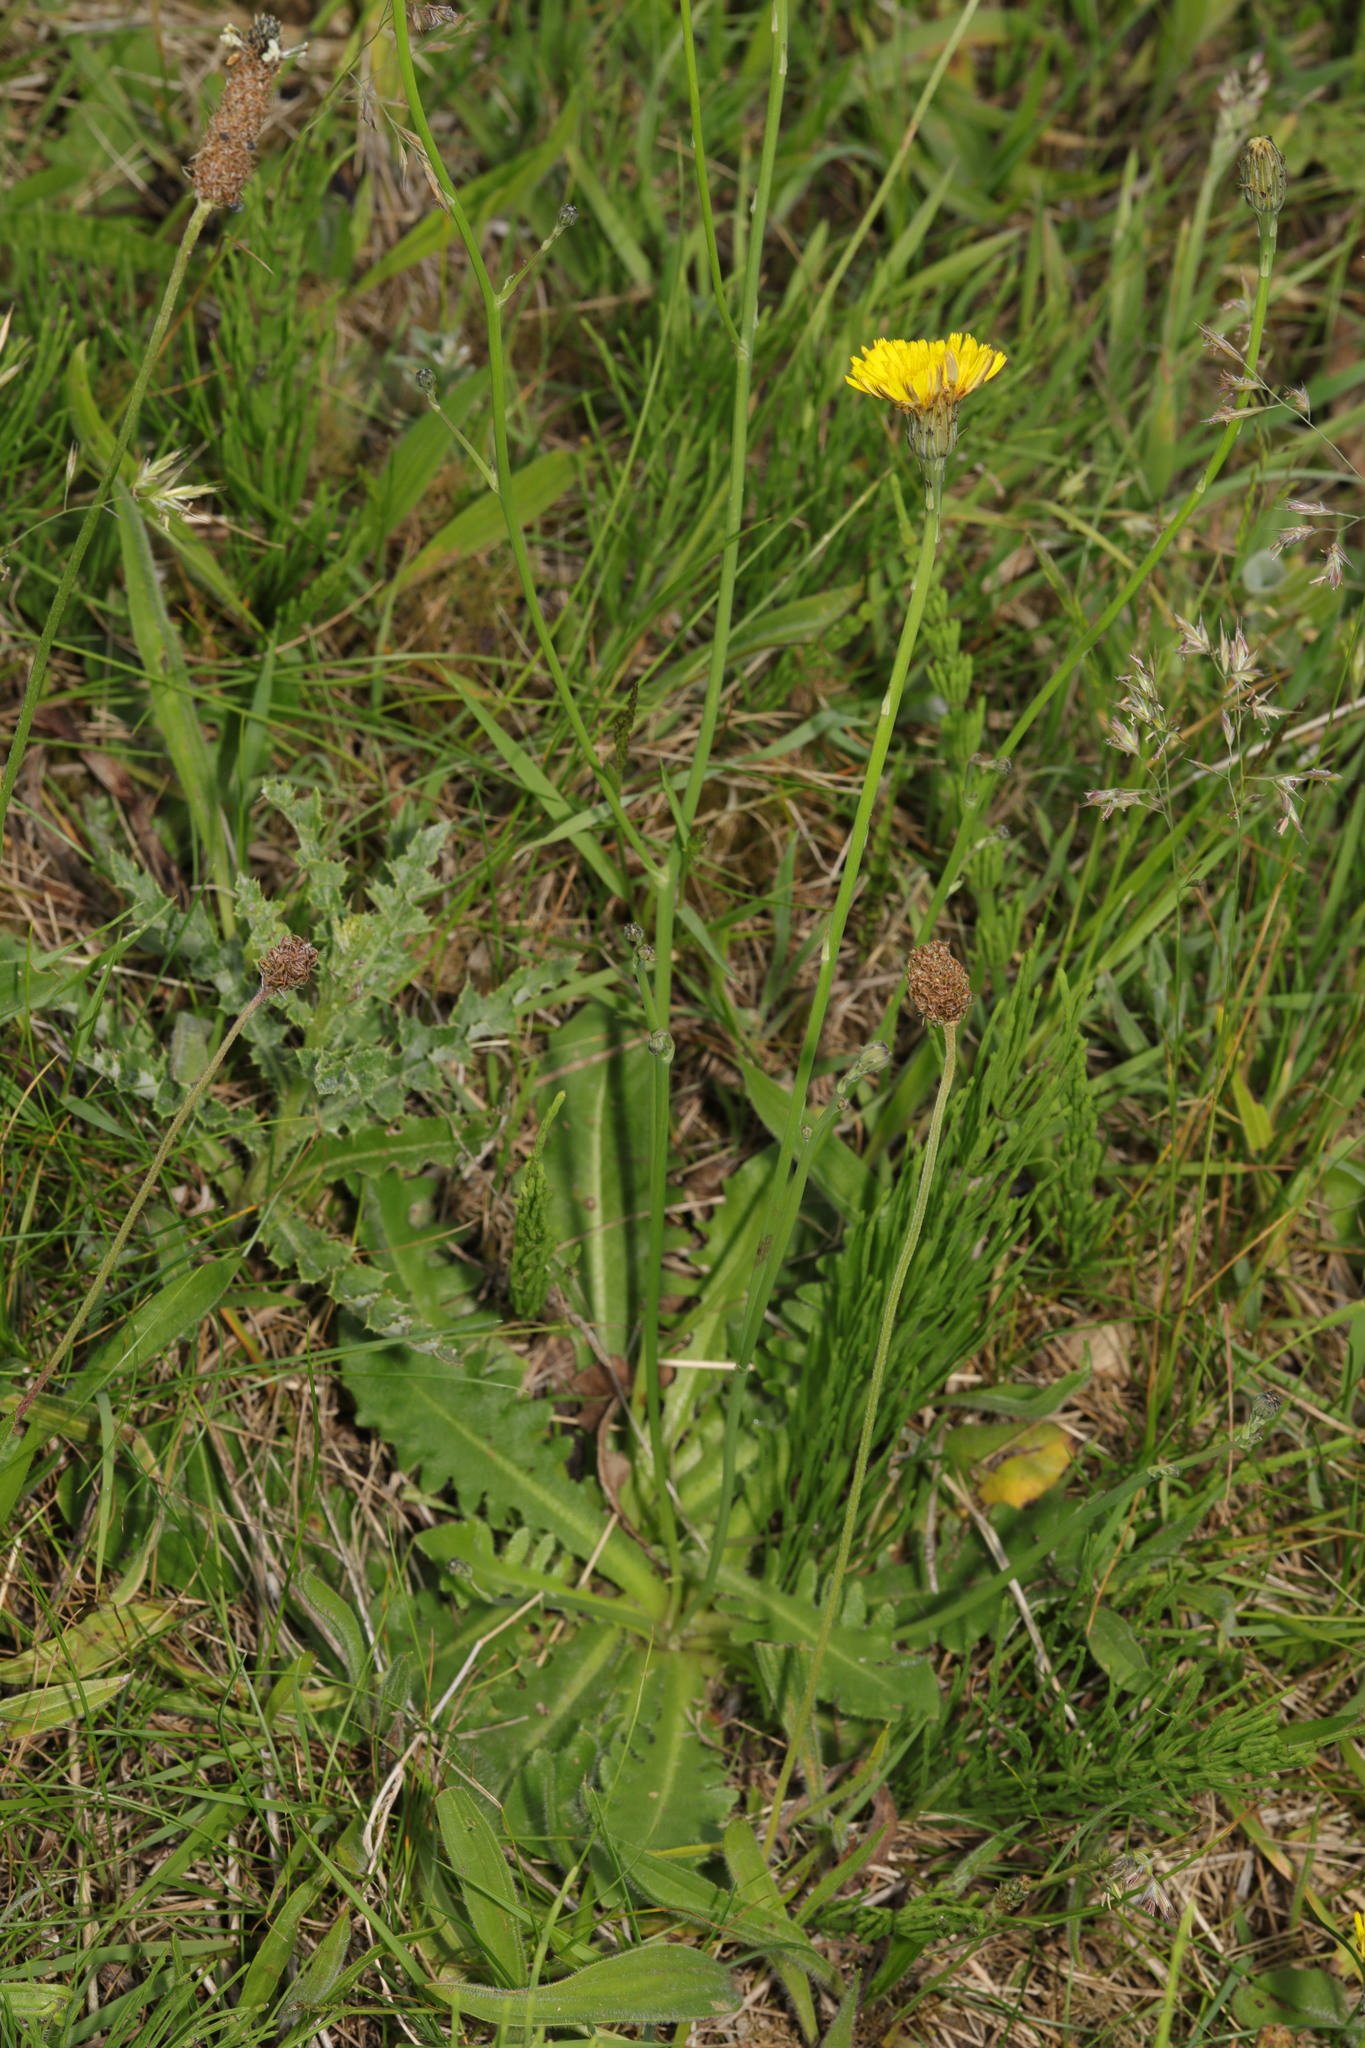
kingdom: Plantae
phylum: Tracheophyta
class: Magnoliopsida
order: Asterales
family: Asteraceae
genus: Hypochaeris
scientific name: Hypochaeris radicata
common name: Flatweed
